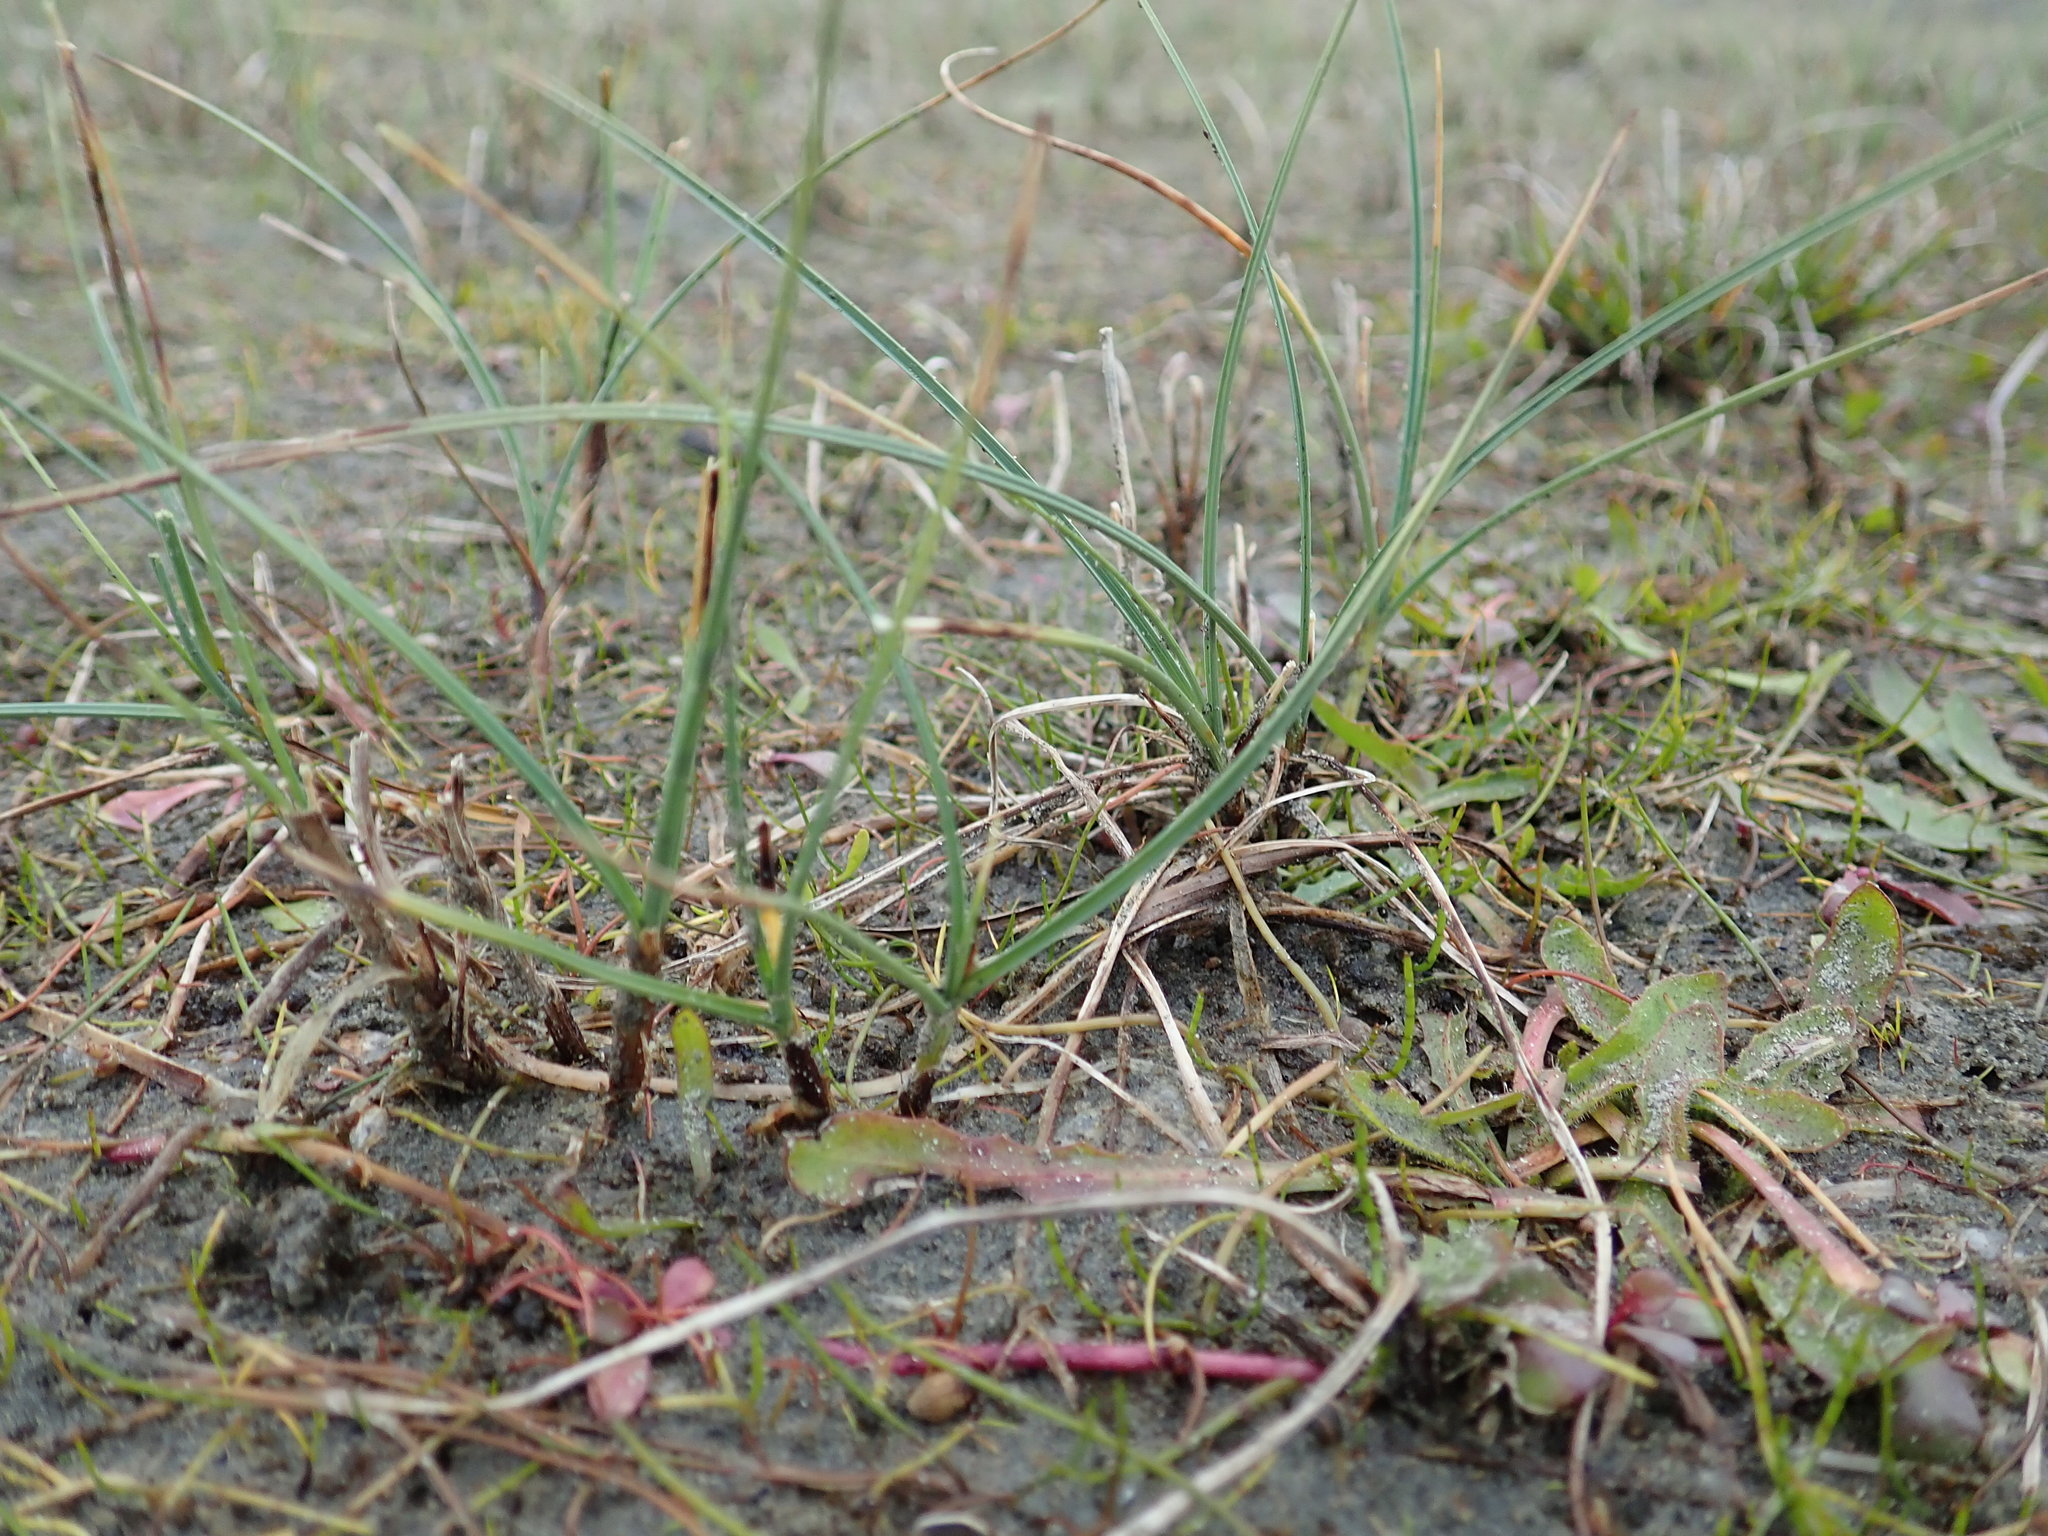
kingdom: Plantae
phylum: Tracheophyta
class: Liliopsida
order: Poales
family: Cyperaceae
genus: Carex
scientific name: Carex pumila
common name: Dwarf sedge
